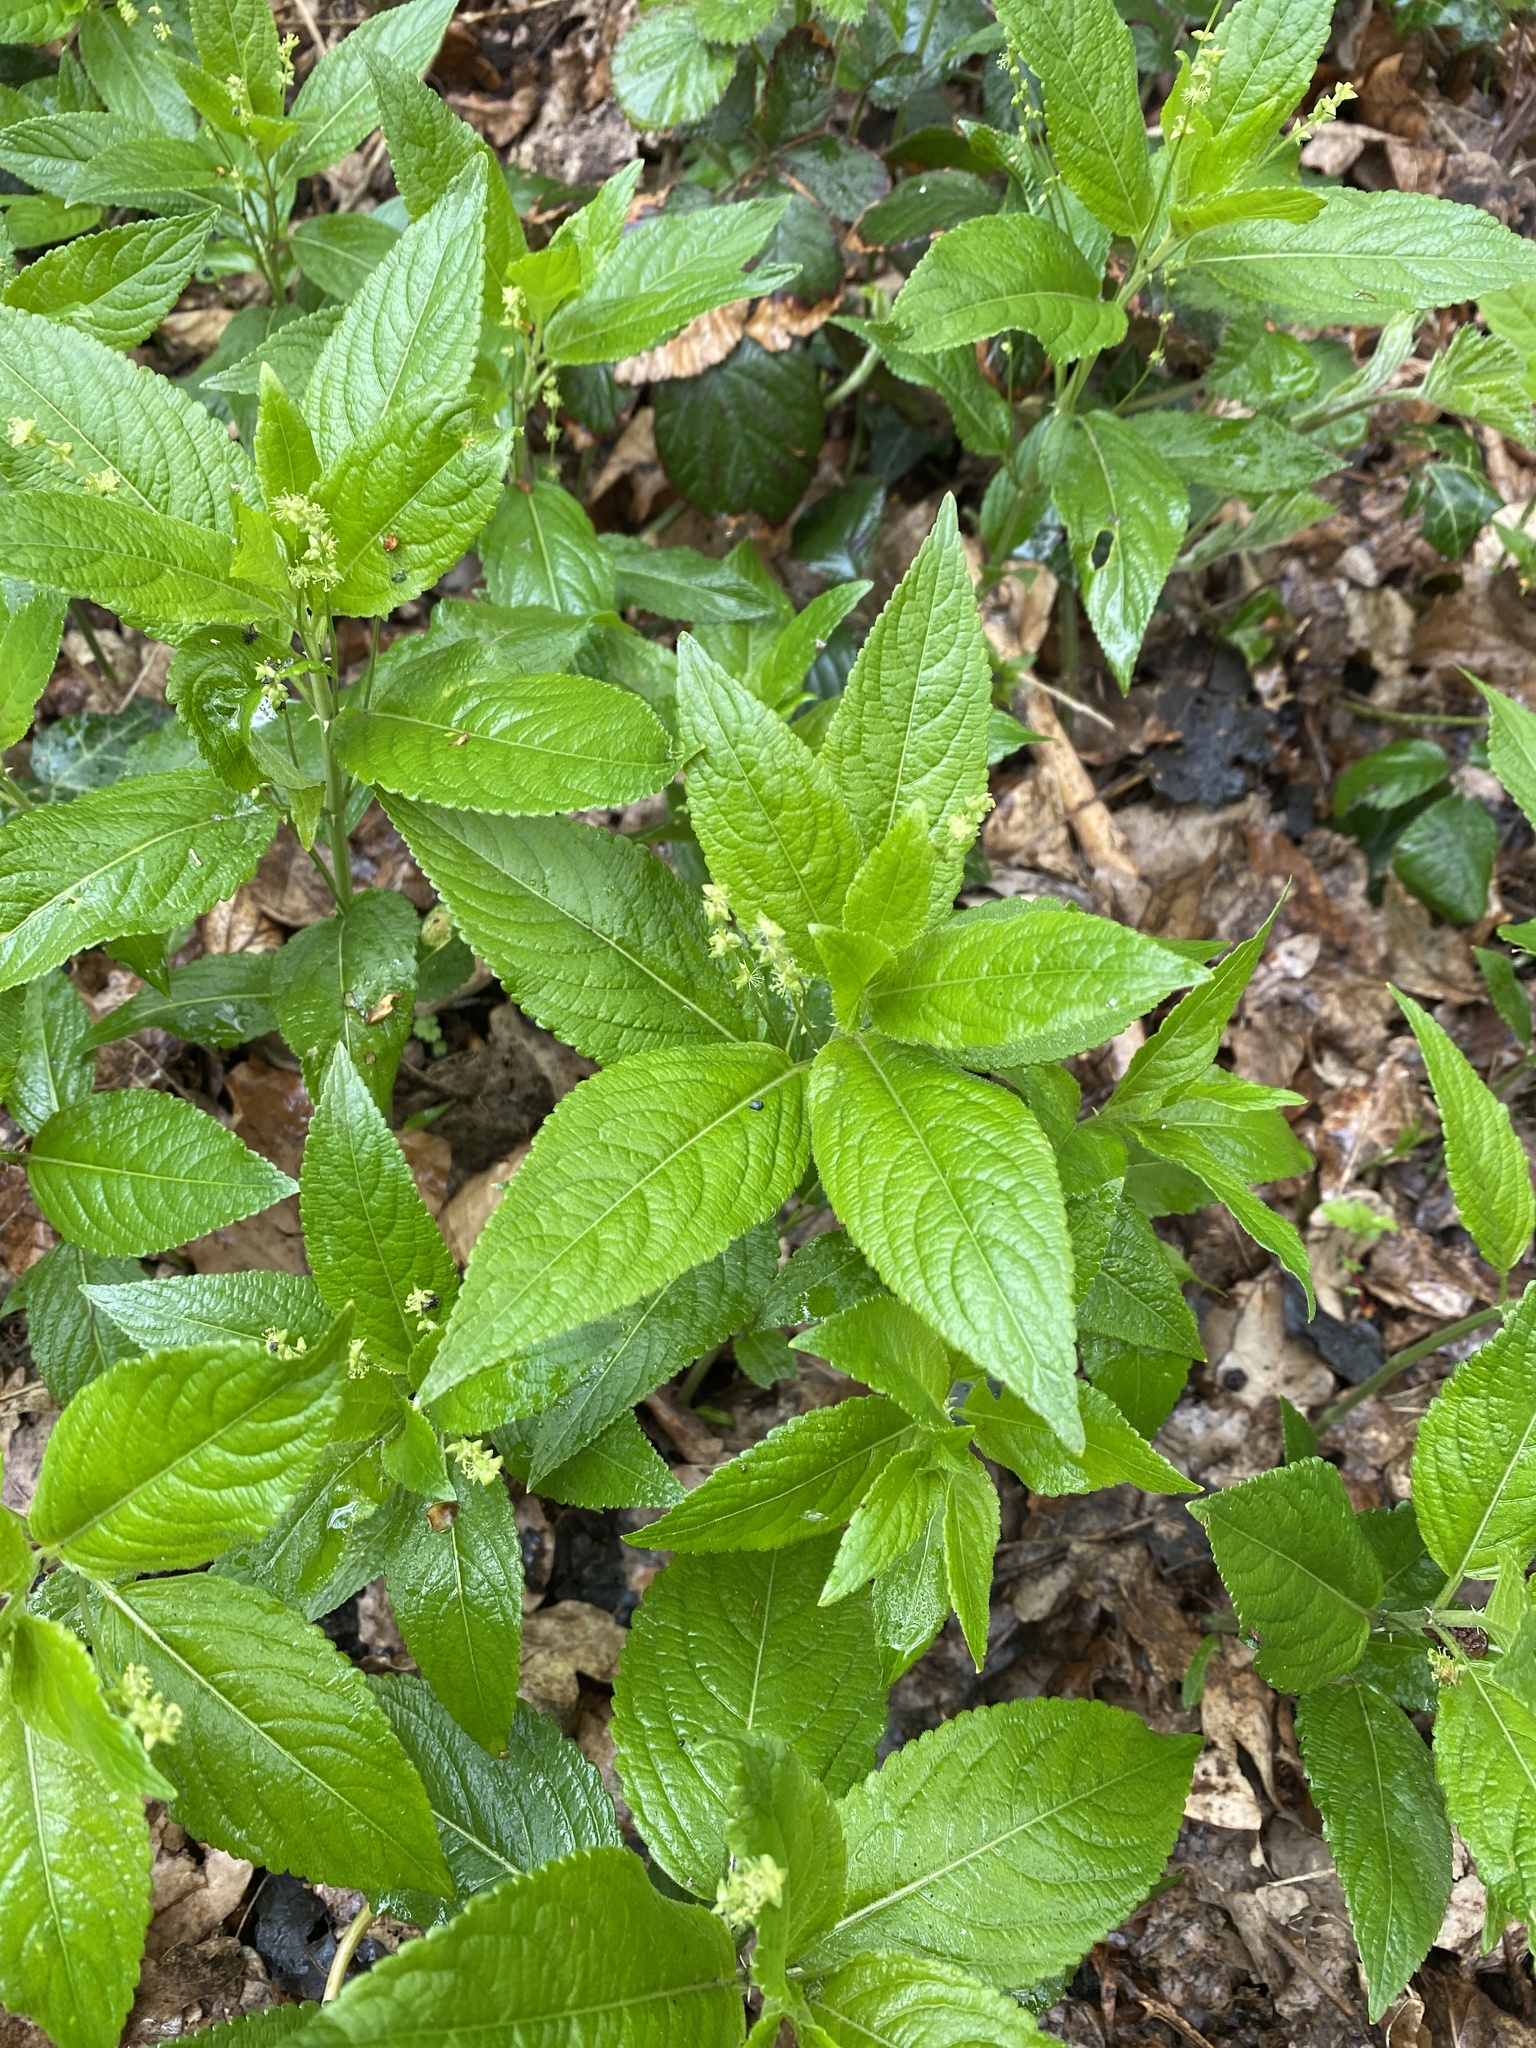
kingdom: Plantae
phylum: Tracheophyta
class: Magnoliopsida
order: Malpighiales
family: Euphorbiaceae
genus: Mercurialis
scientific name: Mercurialis perennis
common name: Dog mercury
